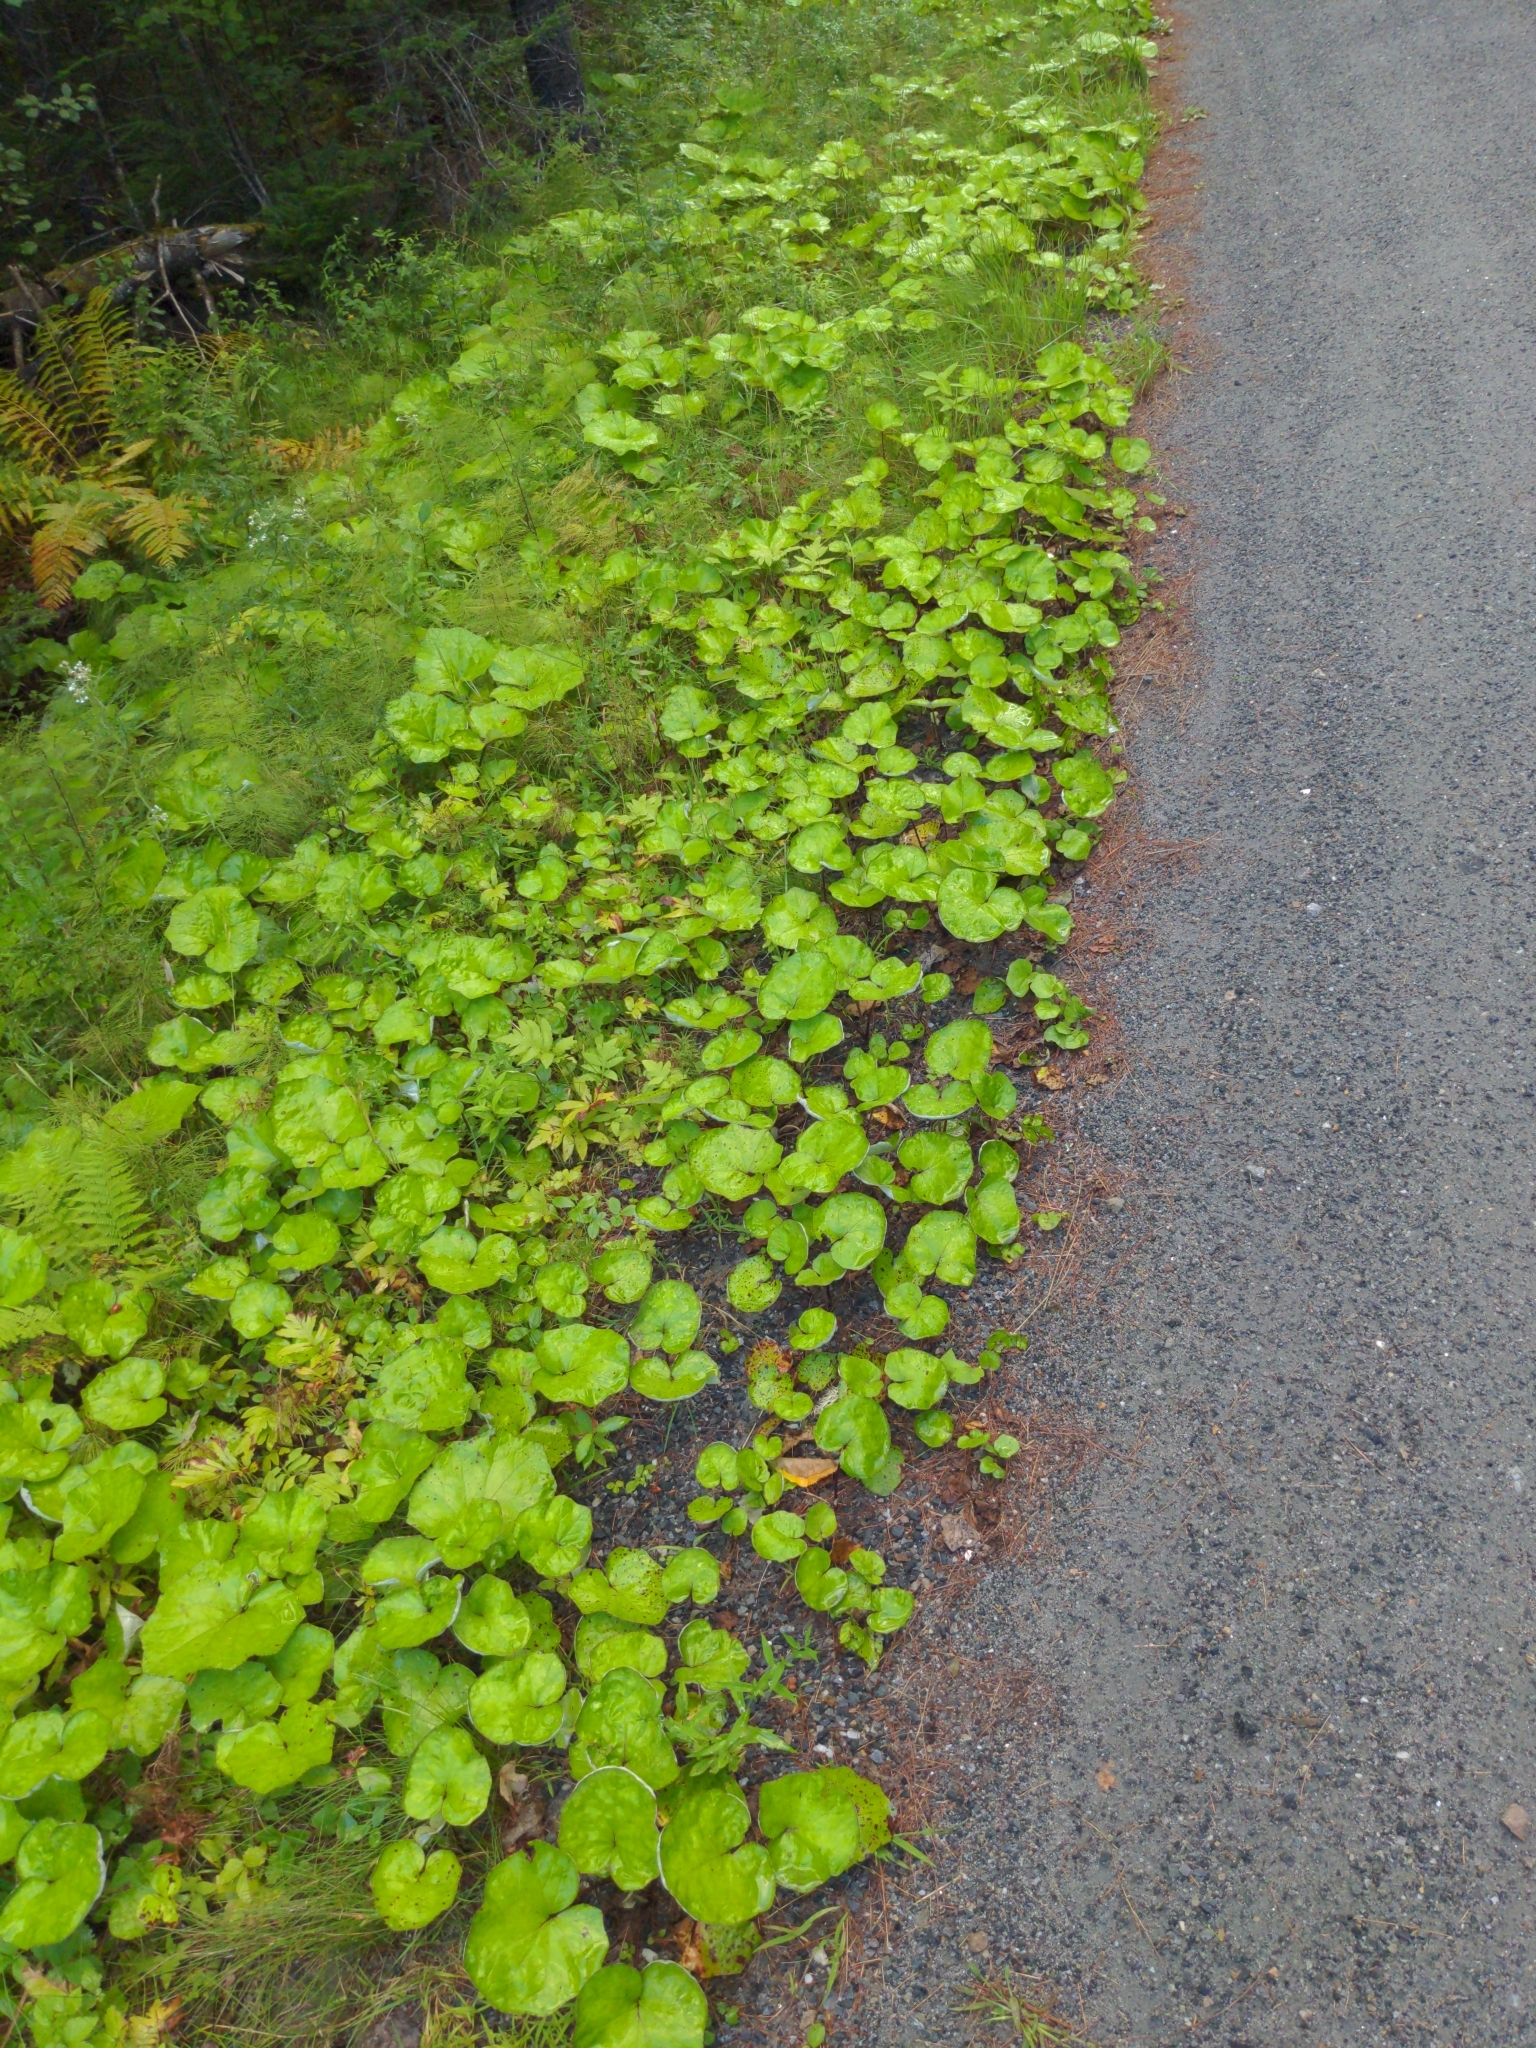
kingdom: Plantae
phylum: Tracheophyta
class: Magnoliopsida
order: Asterales
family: Asteraceae
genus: Tussilago
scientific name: Tussilago farfara
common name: Coltsfoot
